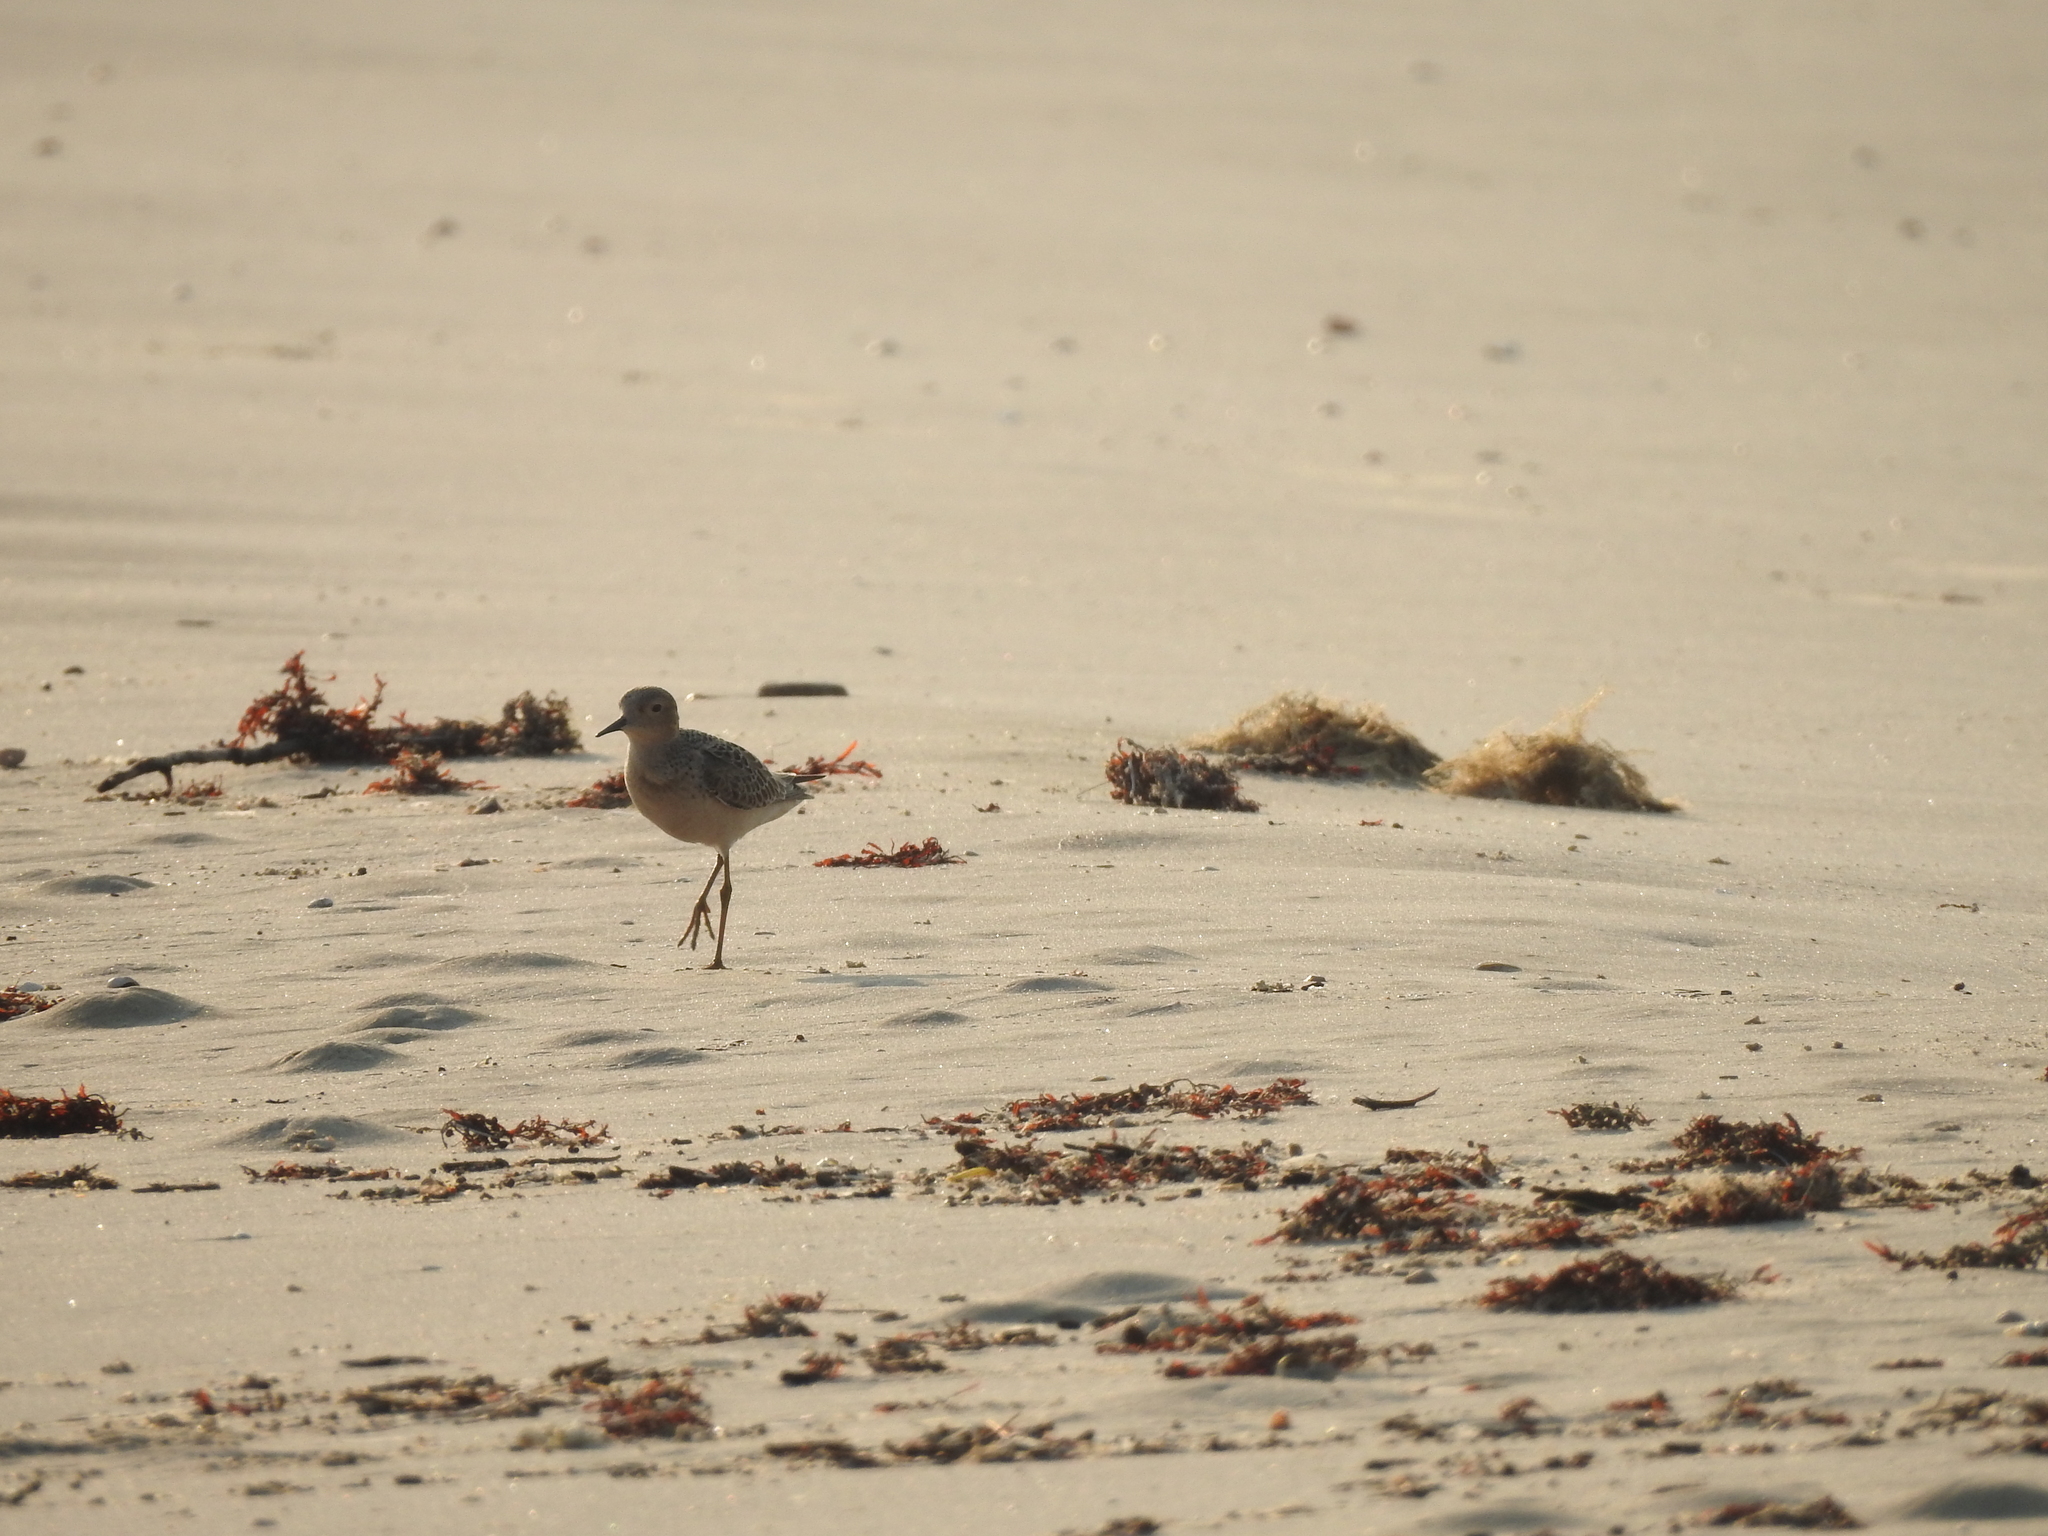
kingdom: Animalia
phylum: Chordata
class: Aves
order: Charadriiformes
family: Scolopacidae
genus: Calidris
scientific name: Calidris subruficollis
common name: Buff-breasted sandpiper
